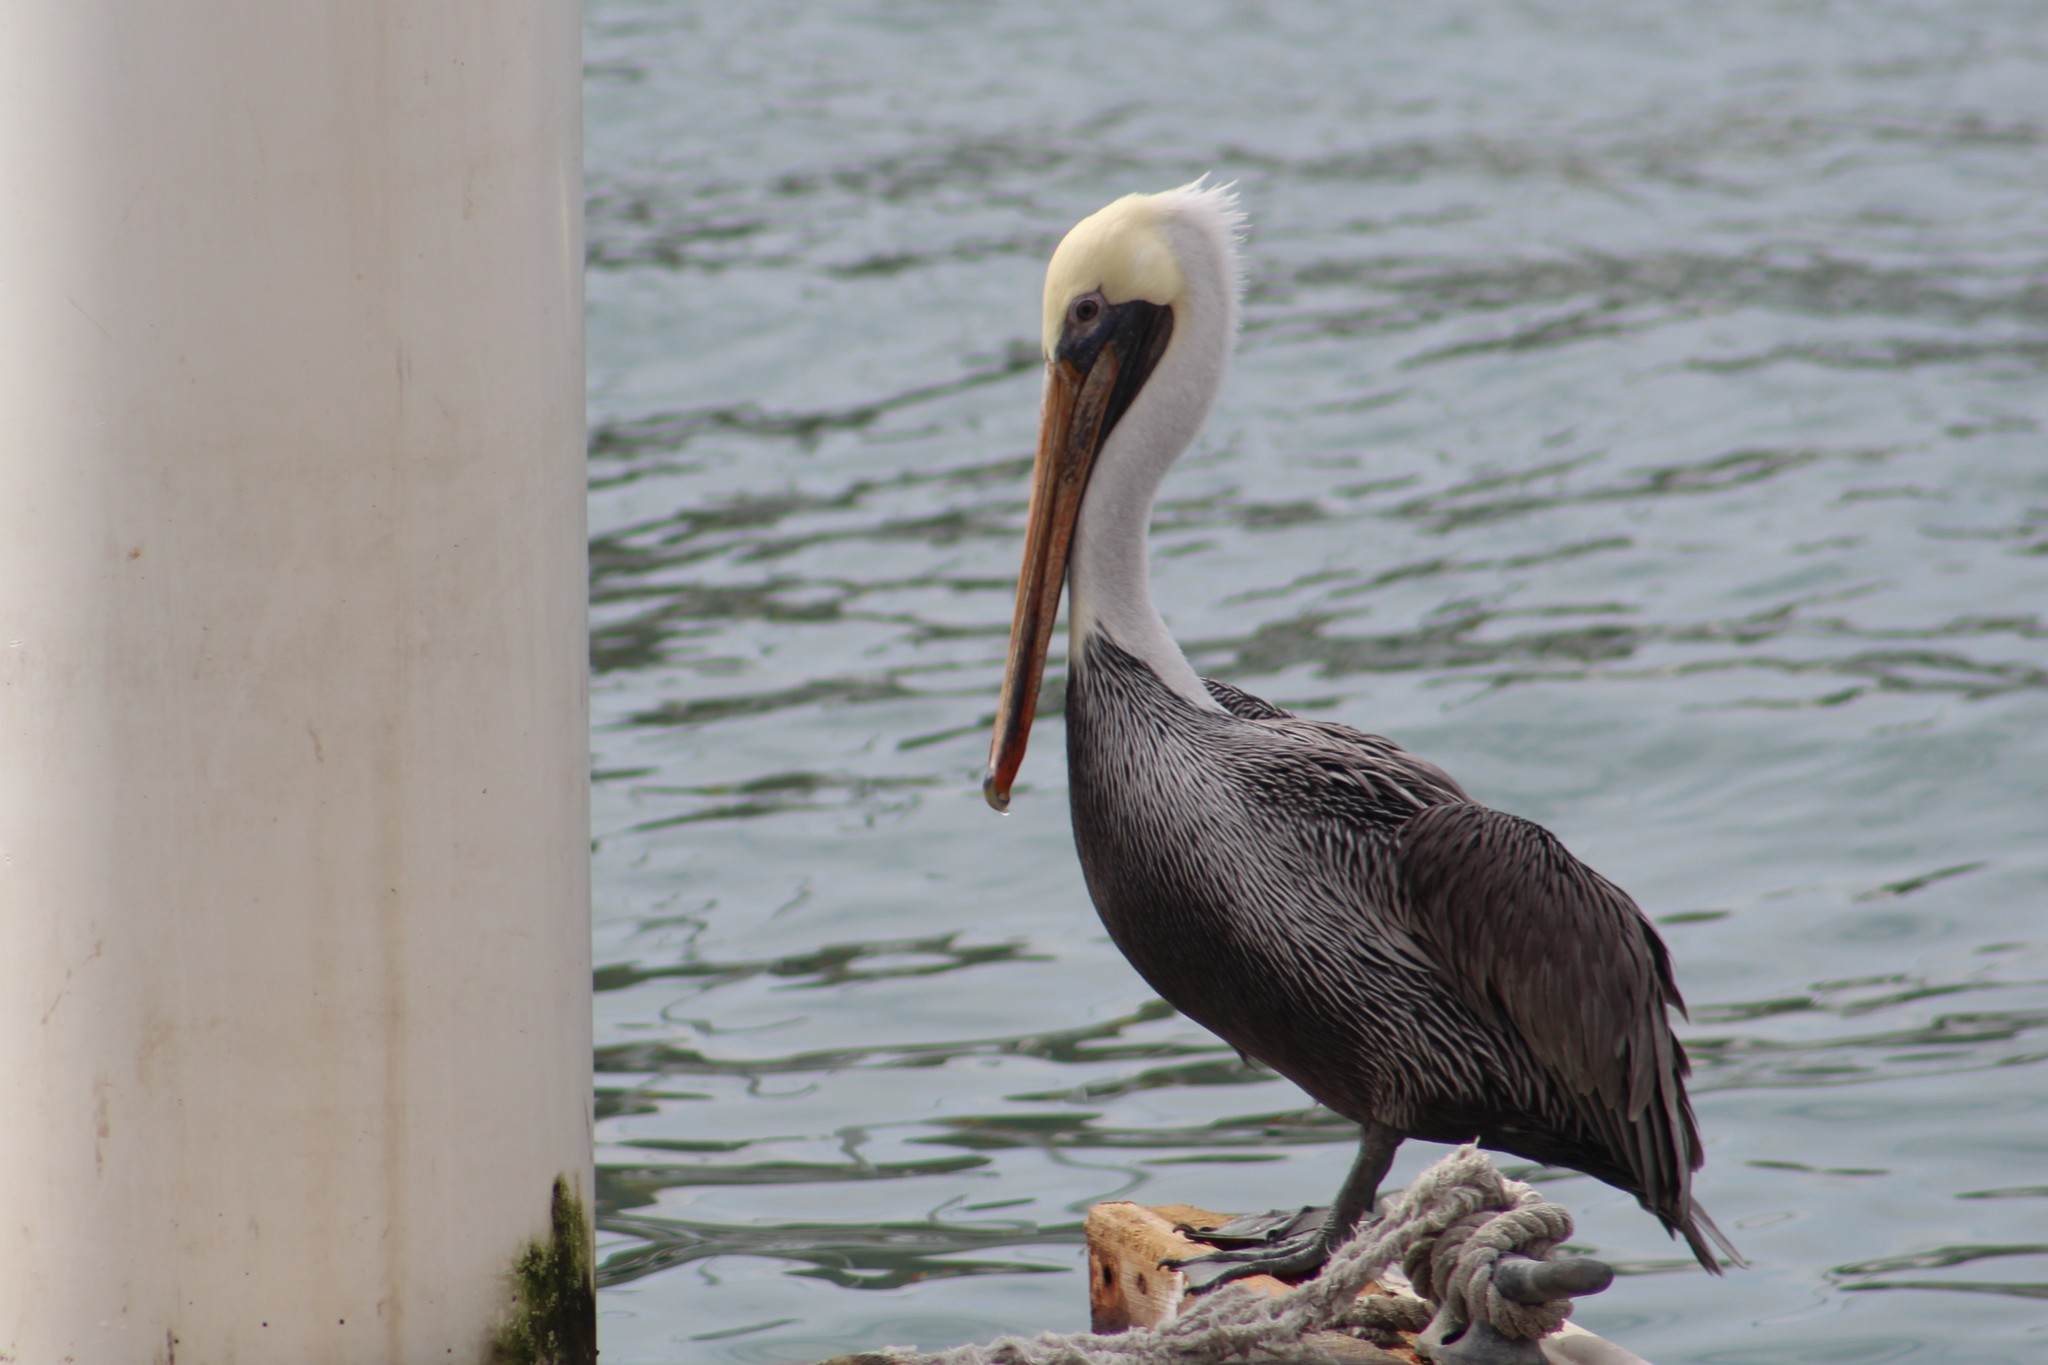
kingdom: Animalia
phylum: Chordata
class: Aves
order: Pelecaniformes
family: Pelecanidae
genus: Pelecanus
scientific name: Pelecanus occidentalis
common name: Brown pelican
